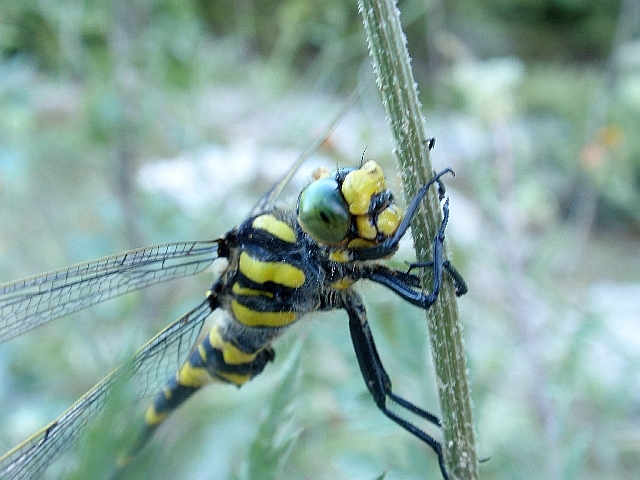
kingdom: Animalia
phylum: Arthropoda
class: Insecta
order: Odonata
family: Cordulegastridae
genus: Cordulegaster
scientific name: Cordulegaster boltonii
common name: Golden-ringed dragonfly
